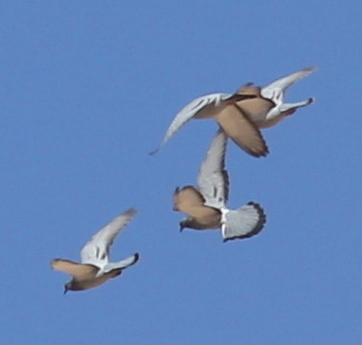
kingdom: Animalia
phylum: Chordata
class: Aves
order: Columbiformes
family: Columbidae
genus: Columba
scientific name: Columba livia
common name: Rock pigeon
